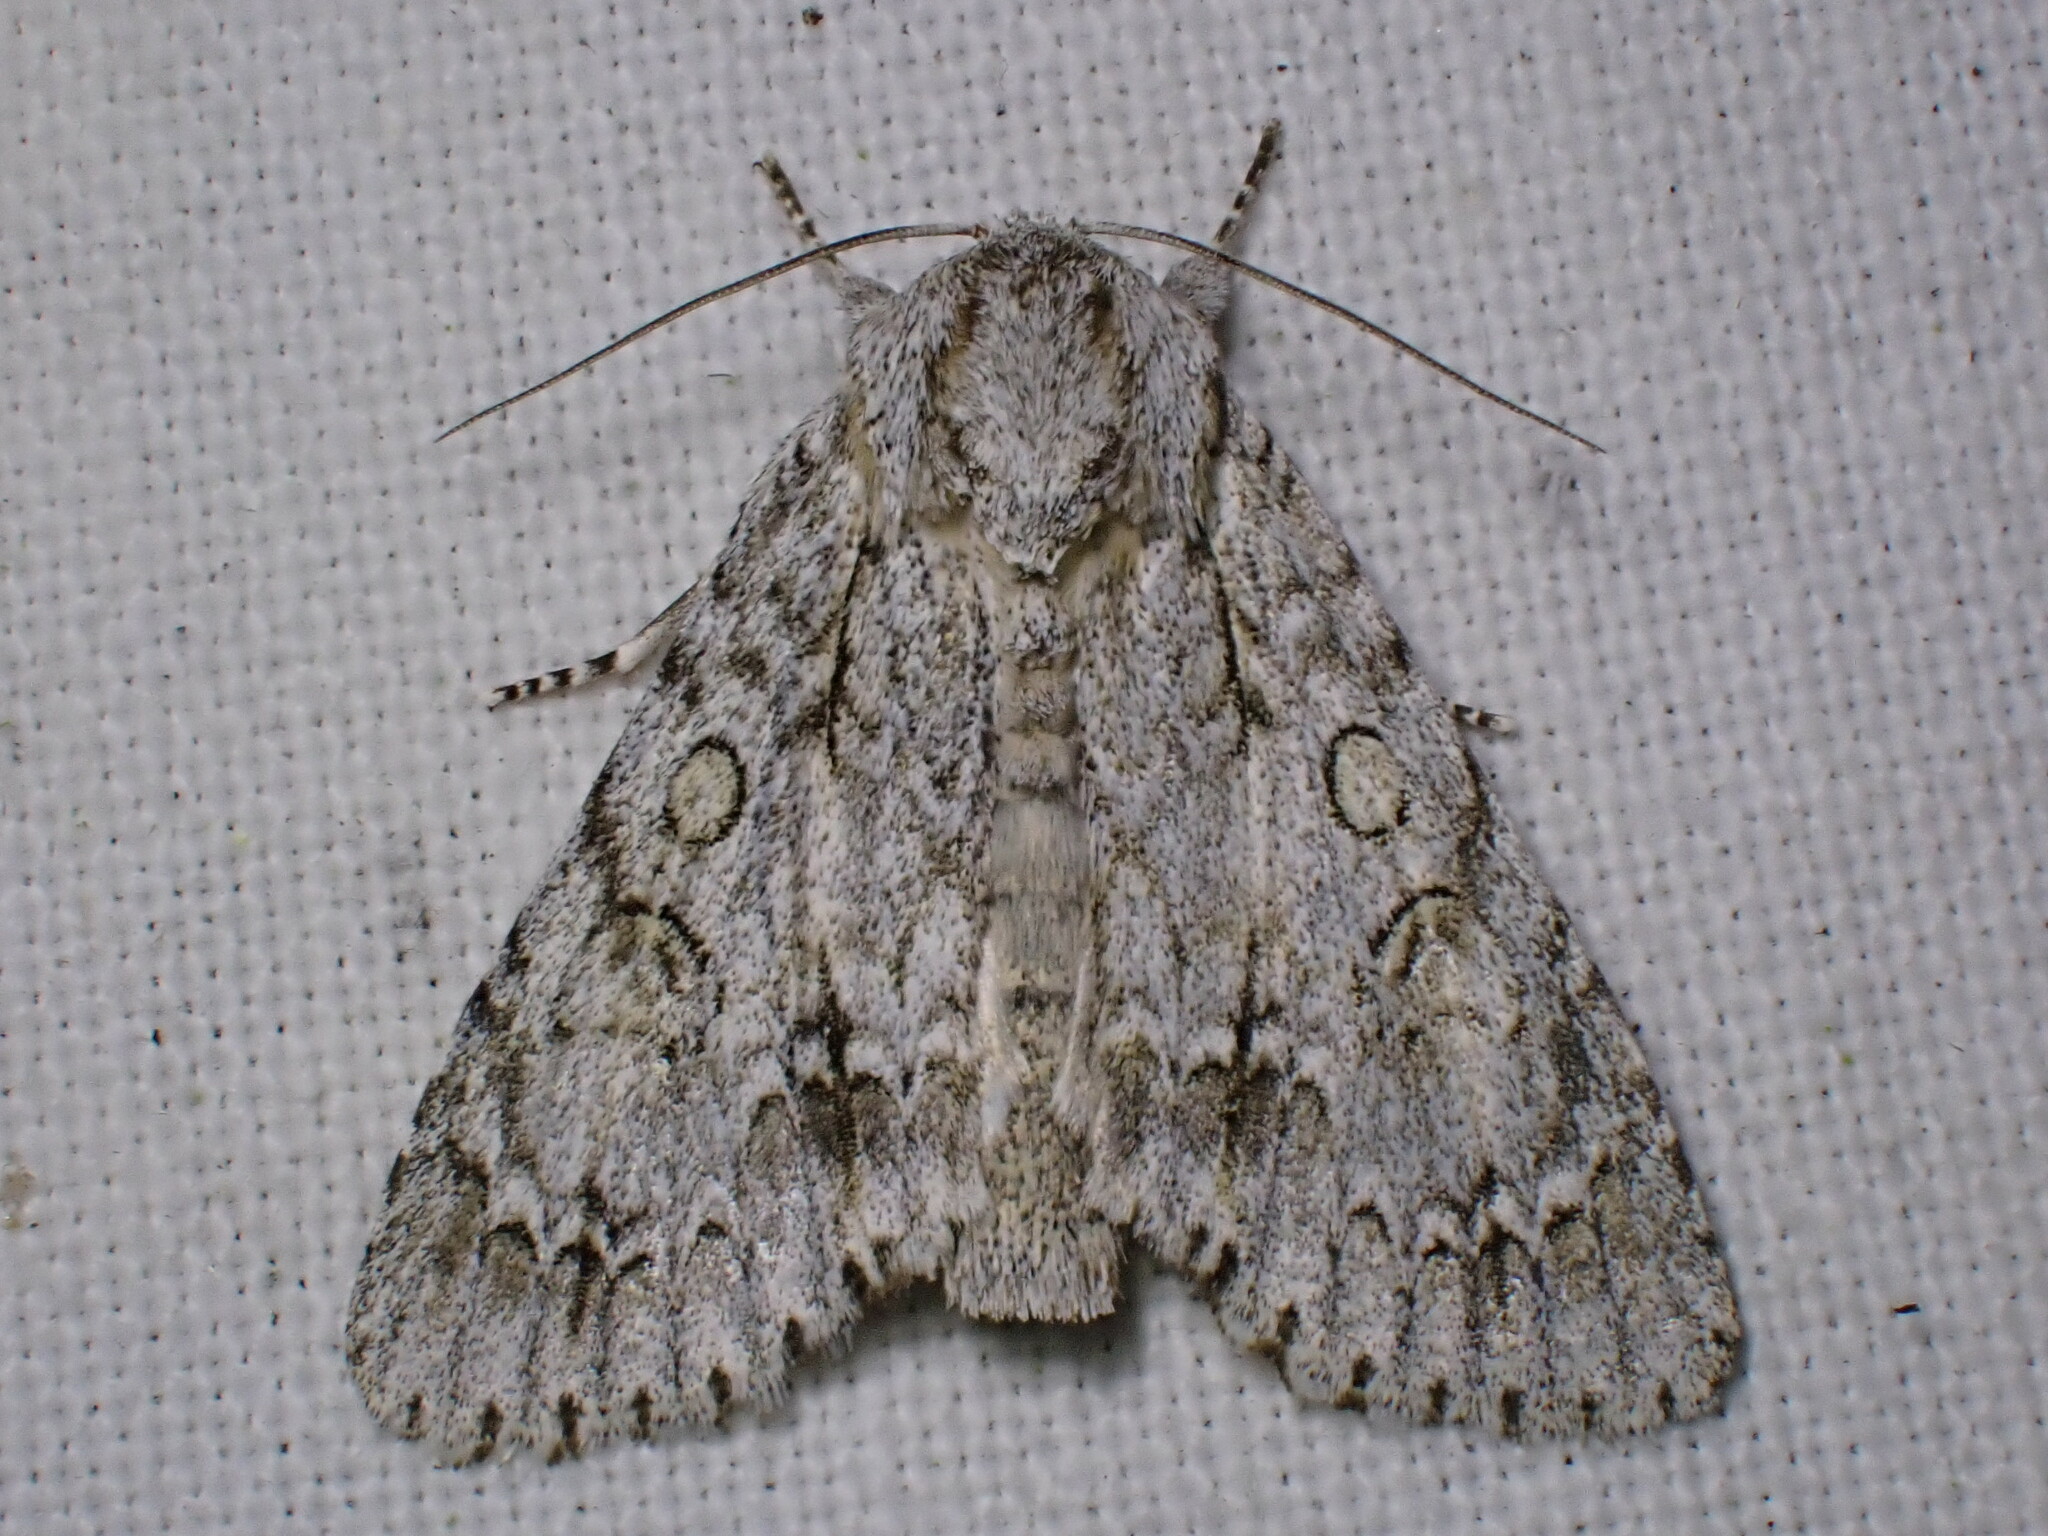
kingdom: Animalia
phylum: Arthropoda
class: Insecta
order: Lepidoptera
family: Noctuidae
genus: Acronicta
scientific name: Acronicta aceris
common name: Sycamore
